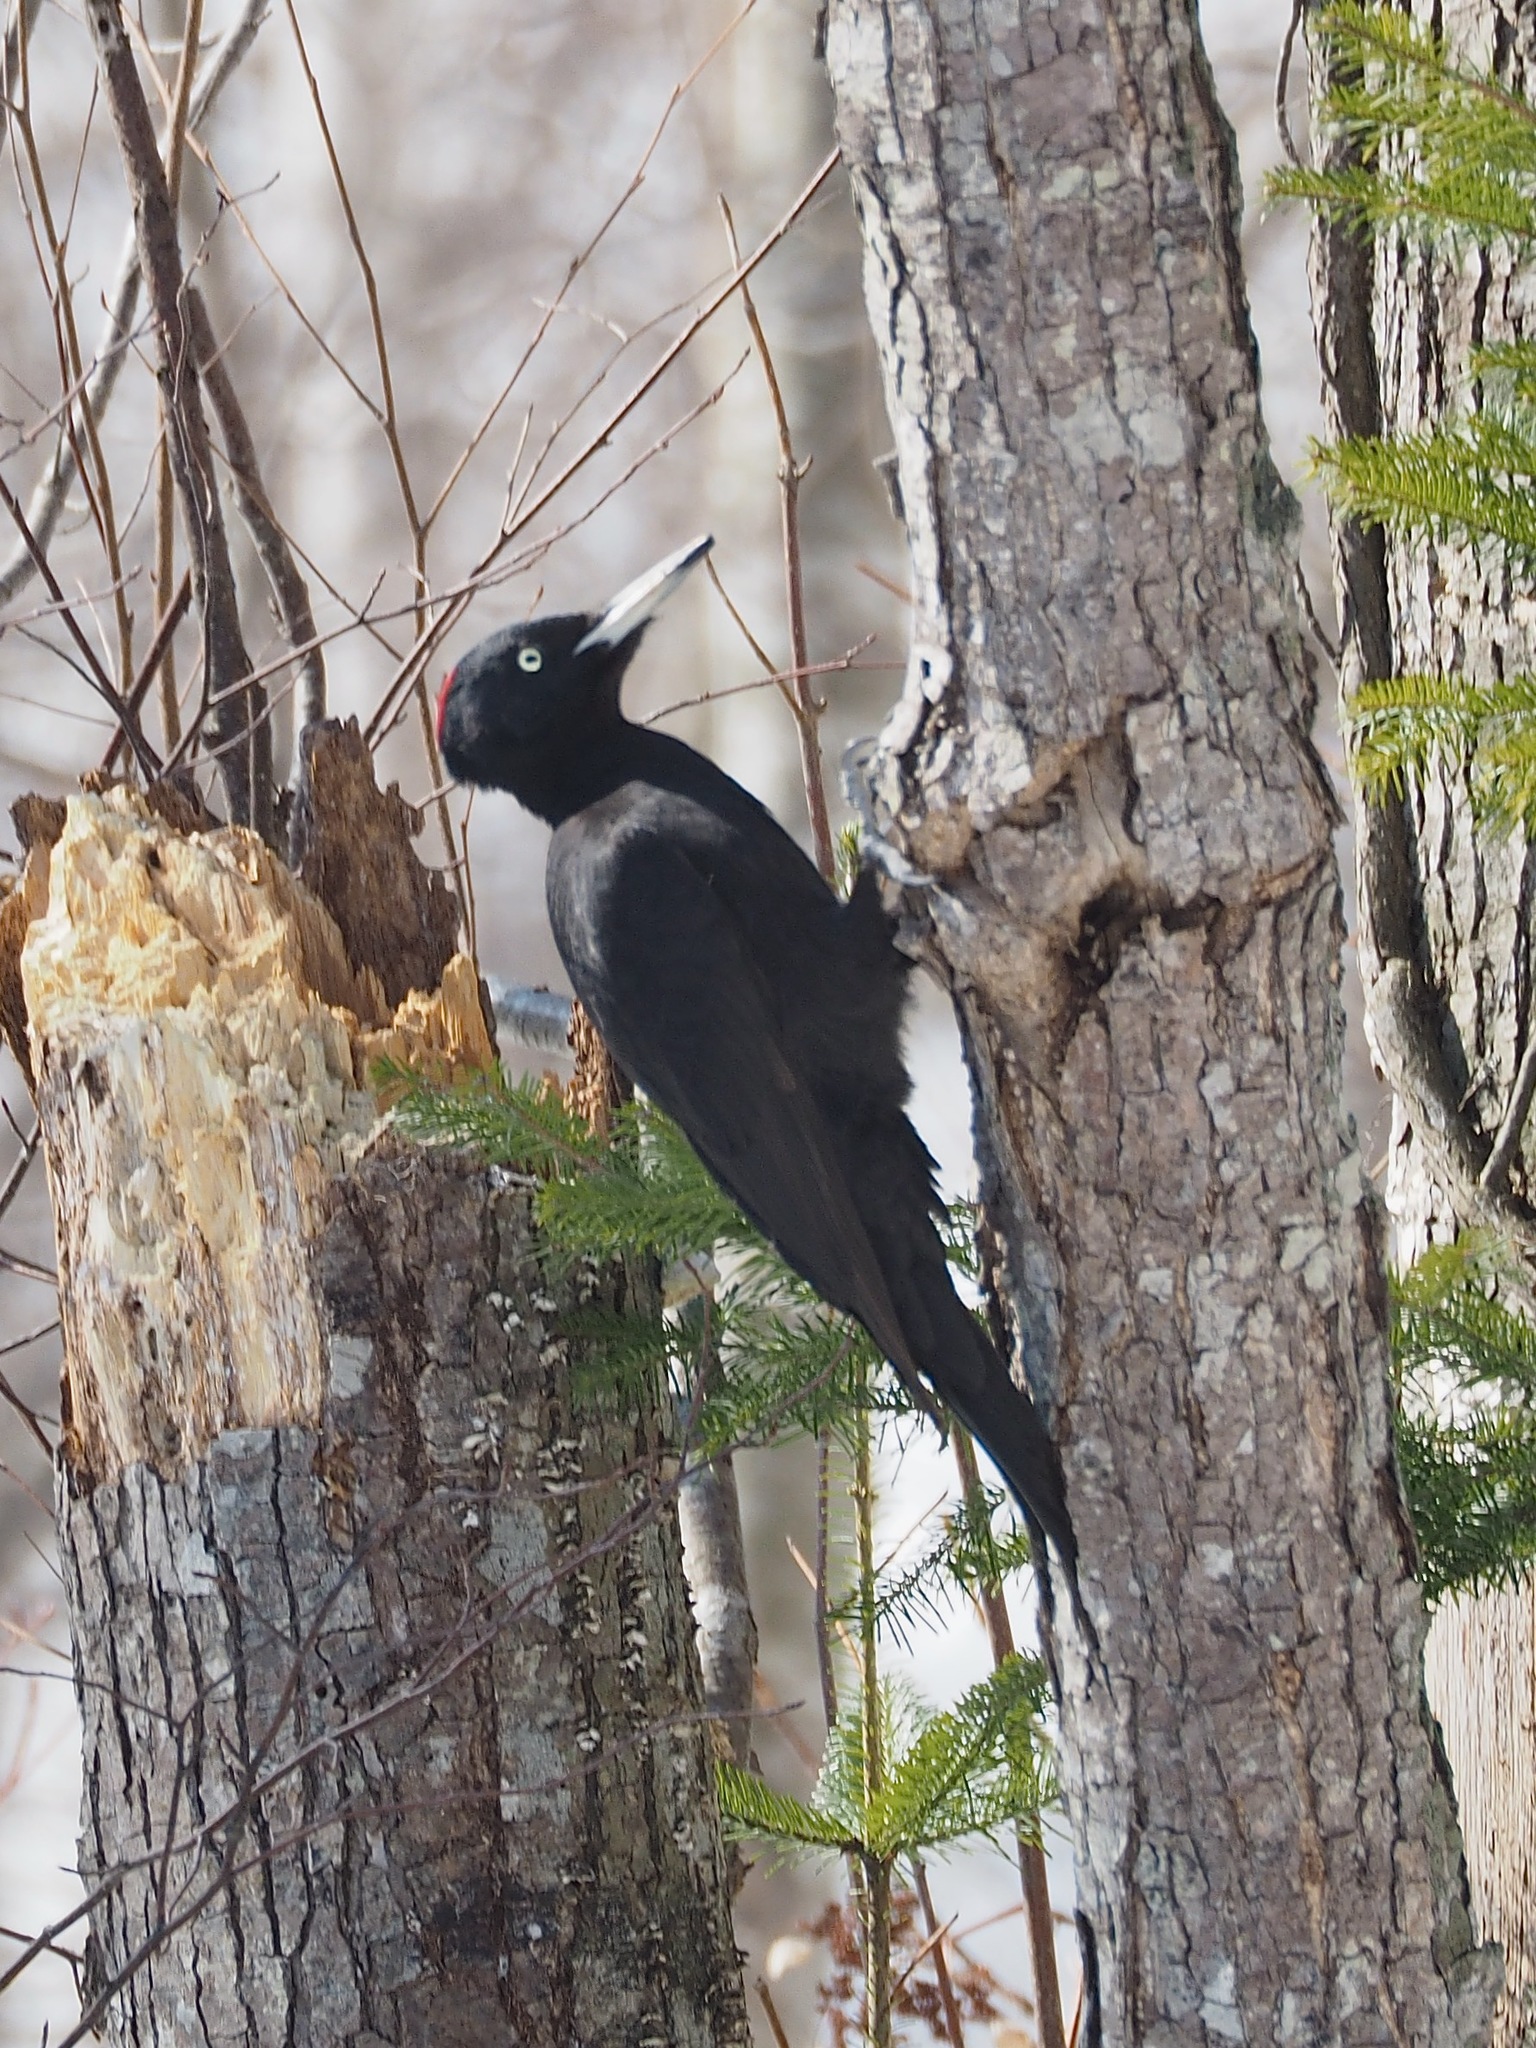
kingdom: Animalia
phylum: Chordata
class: Aves
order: Piciformes
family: Picidae
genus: Dryocopus
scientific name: Dryocopus martius
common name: Black woodpecker
